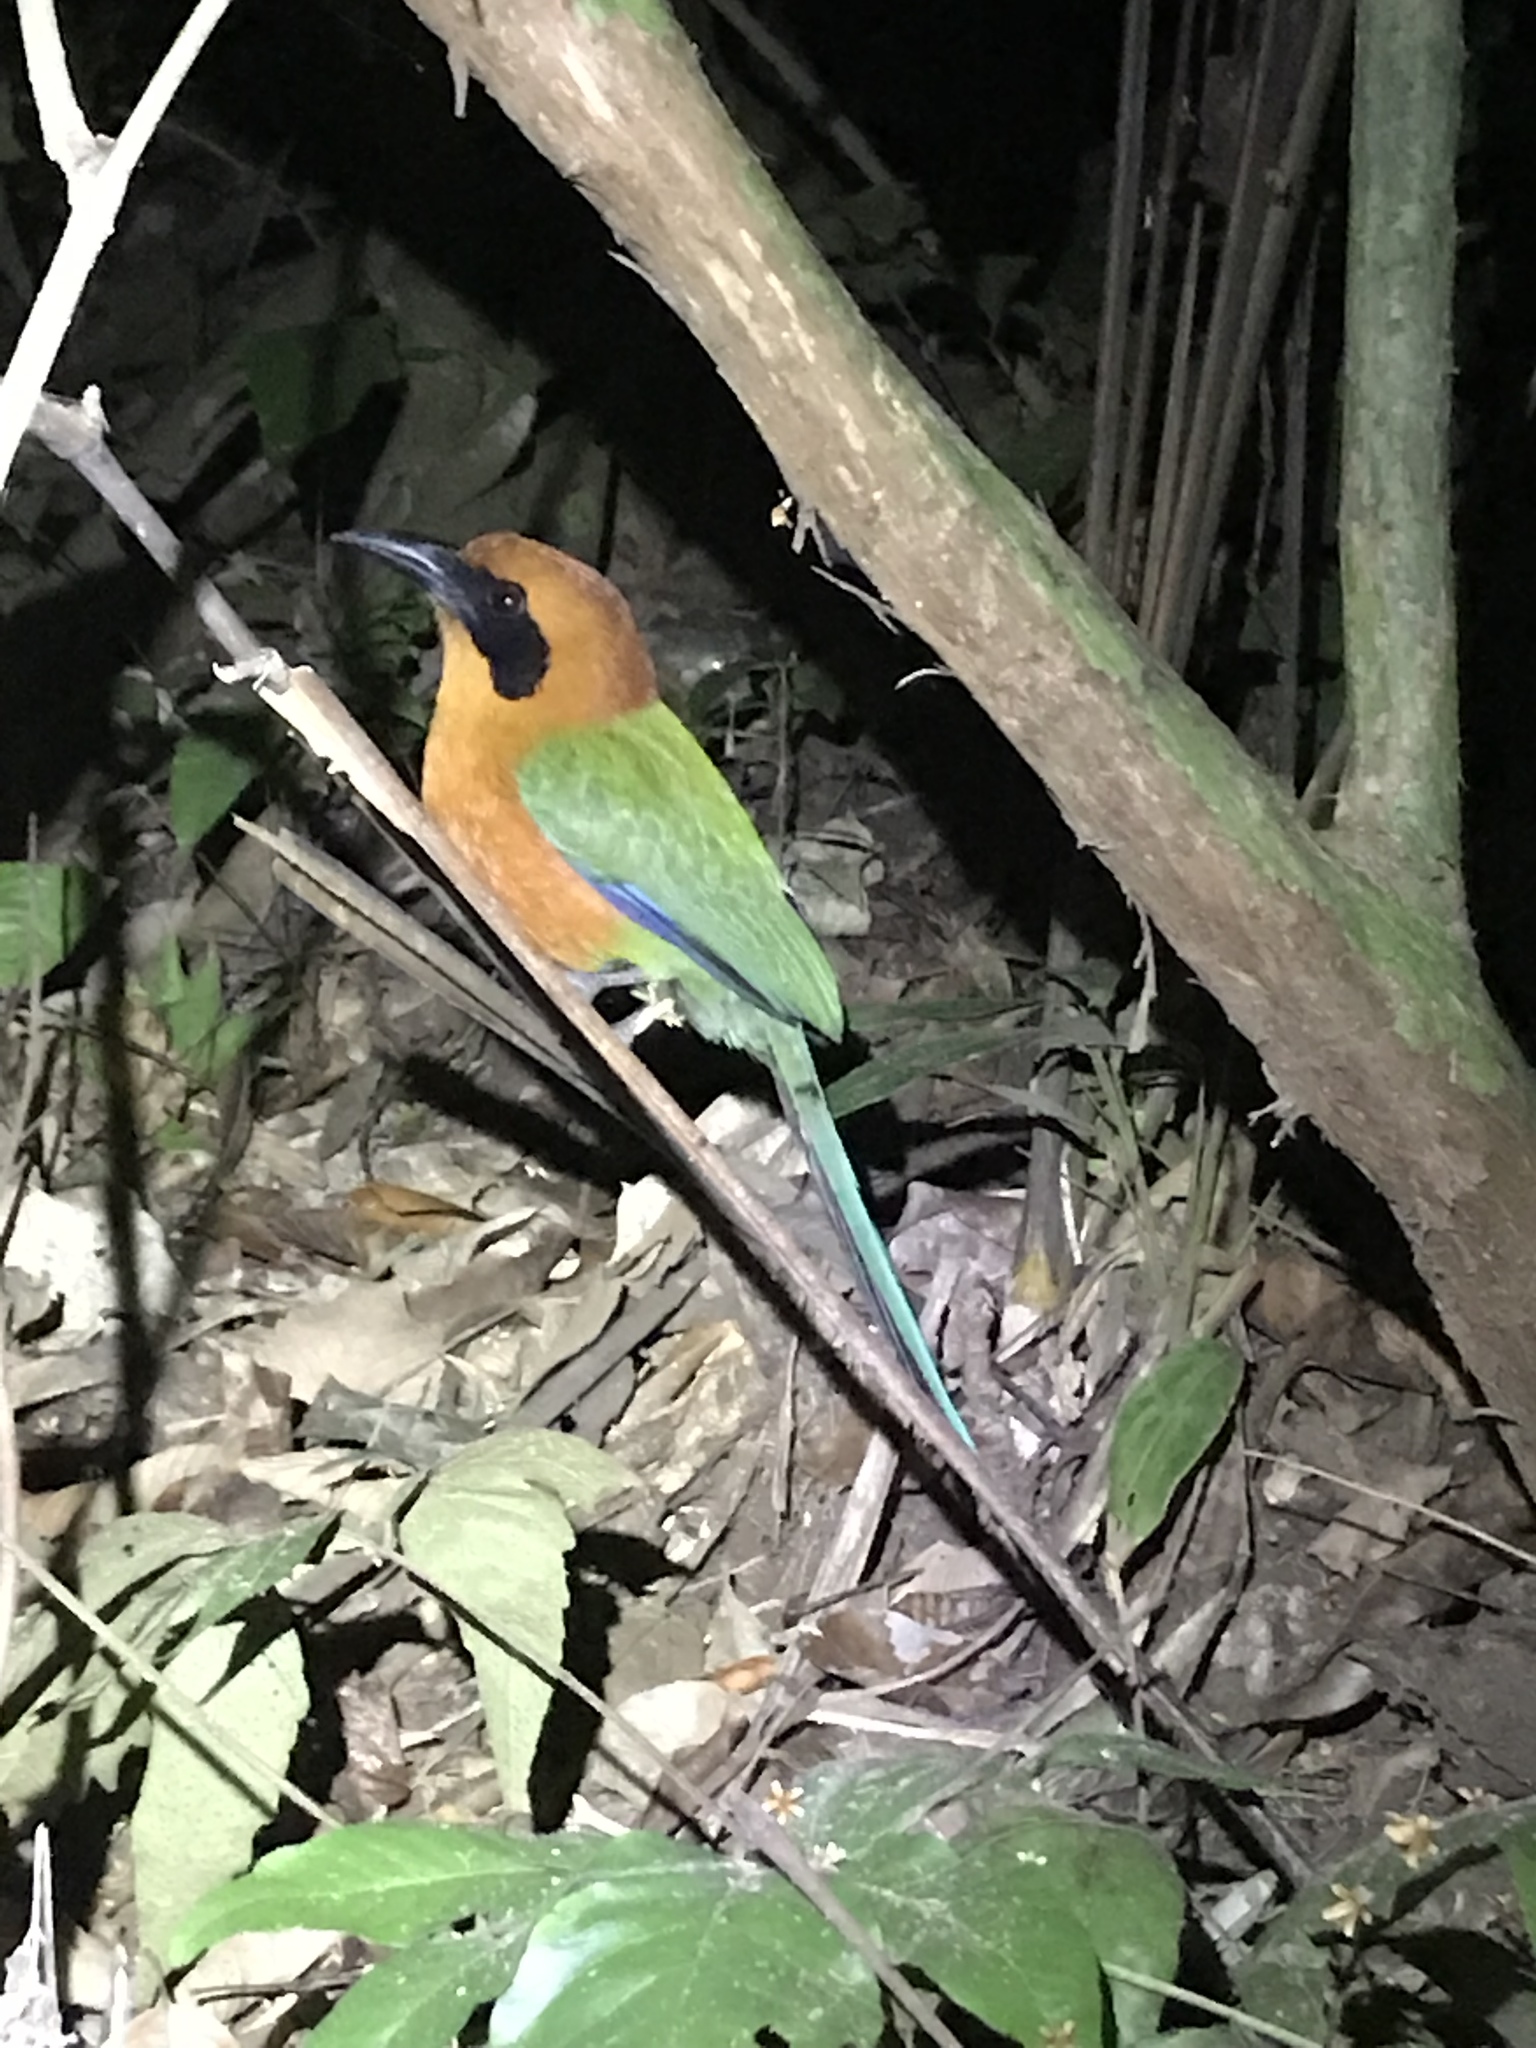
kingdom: Animalia
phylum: Chordata
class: Aves
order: Coraciiformes
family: Momotidae
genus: Baryphthengus
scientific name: Baryphthengus martii
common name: Rufous motmot
